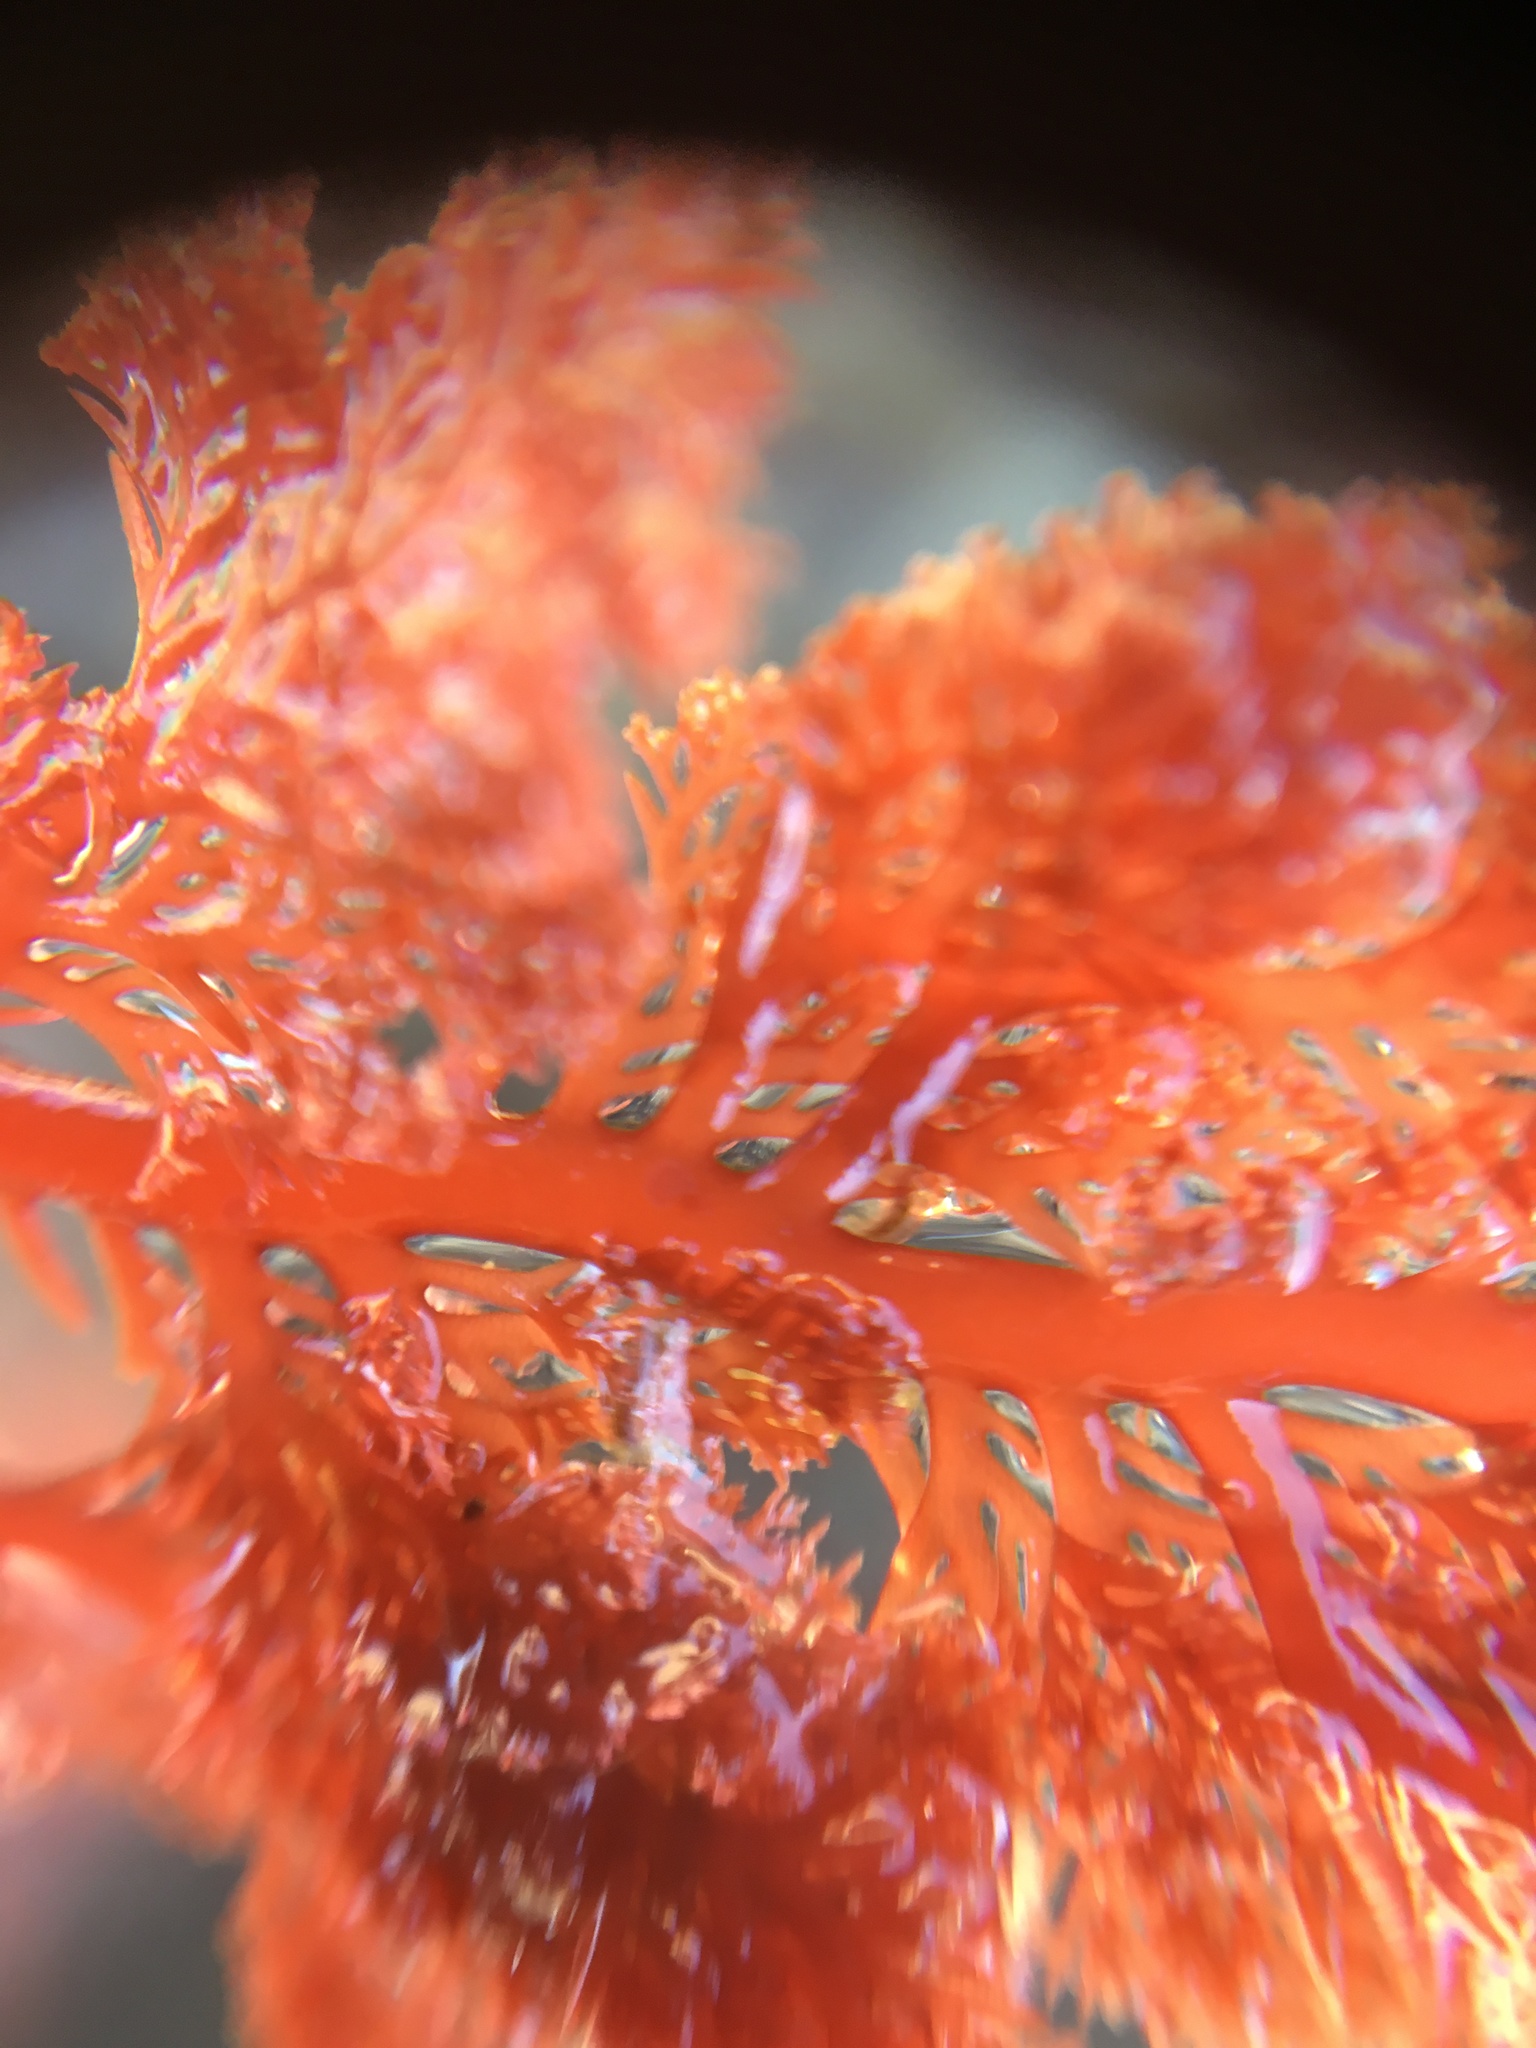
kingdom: Plantae
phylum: Rhodophyta
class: Florideophyceae
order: Plocamiales
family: Plocamiaceae
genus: Plocamium
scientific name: Plocamium cartilagineum
